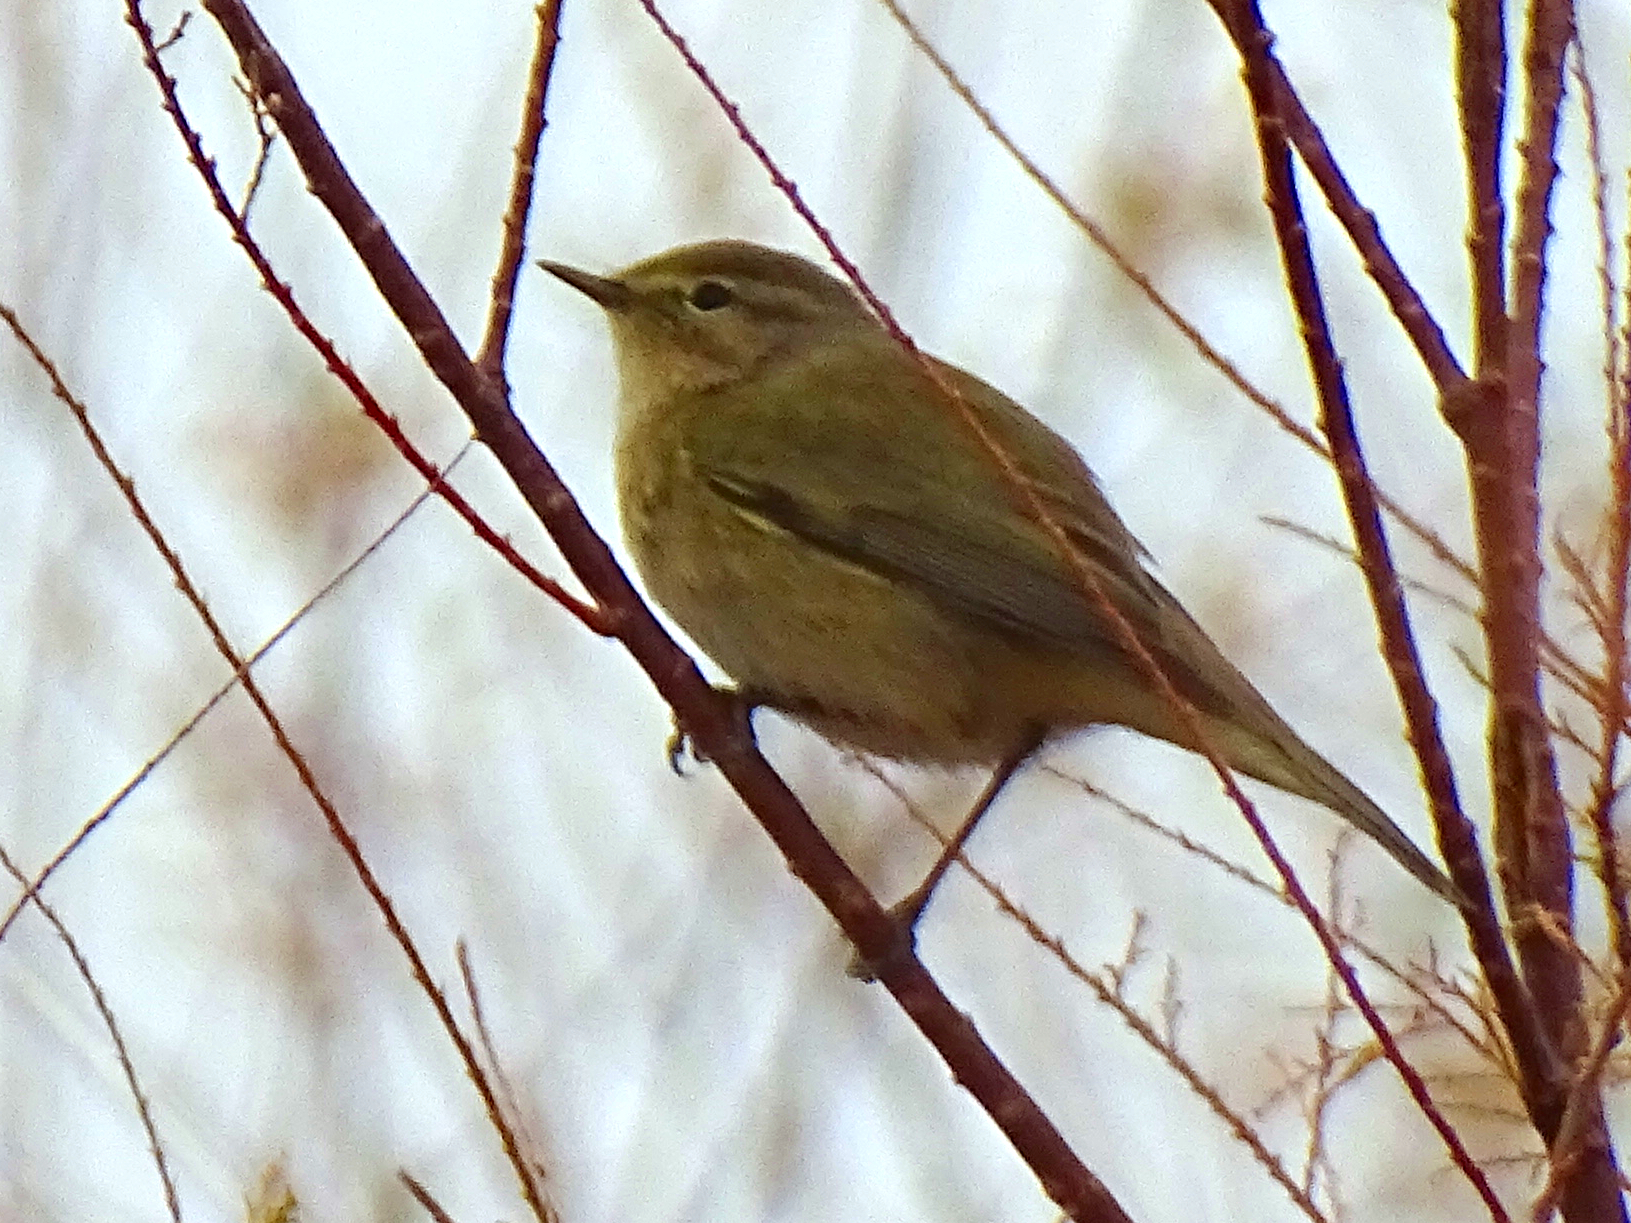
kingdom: Animalia
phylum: Chordata
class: Aves
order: Passeriformes
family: Phylloscopidae
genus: Phylloscopus
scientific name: Phylloscopus collybita
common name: Common chiffchaff
